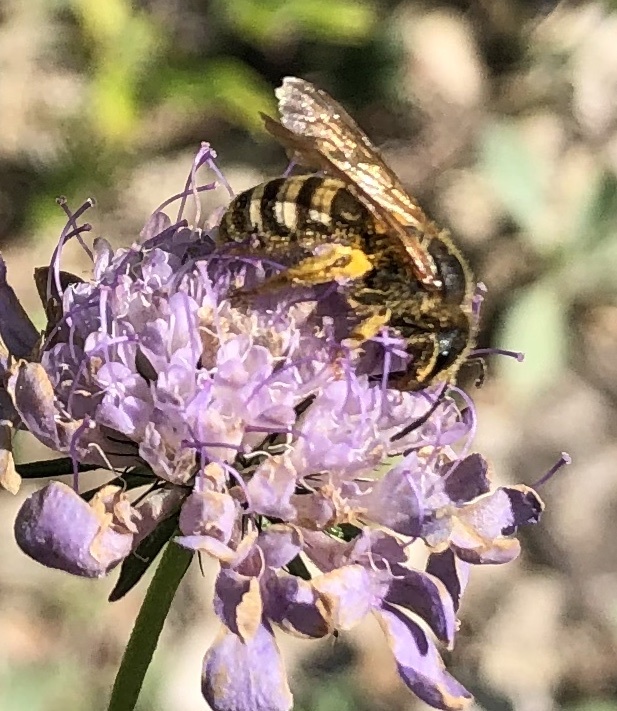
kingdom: Animalia
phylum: Arthropoda
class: Insecta
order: Hymenoptera
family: Halictidae
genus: Halictus
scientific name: Halictus scabiosae
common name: Great banded furrow bee
